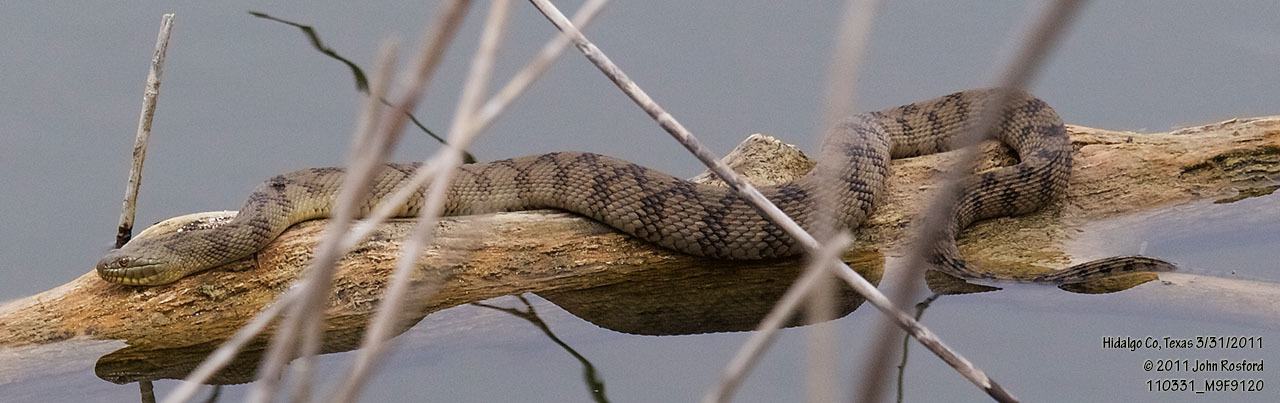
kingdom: Animalia
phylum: Chordata
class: Squamata
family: Colubridae
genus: Nerodia
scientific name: Nerodia rhombifer
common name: Diamondback water snake
